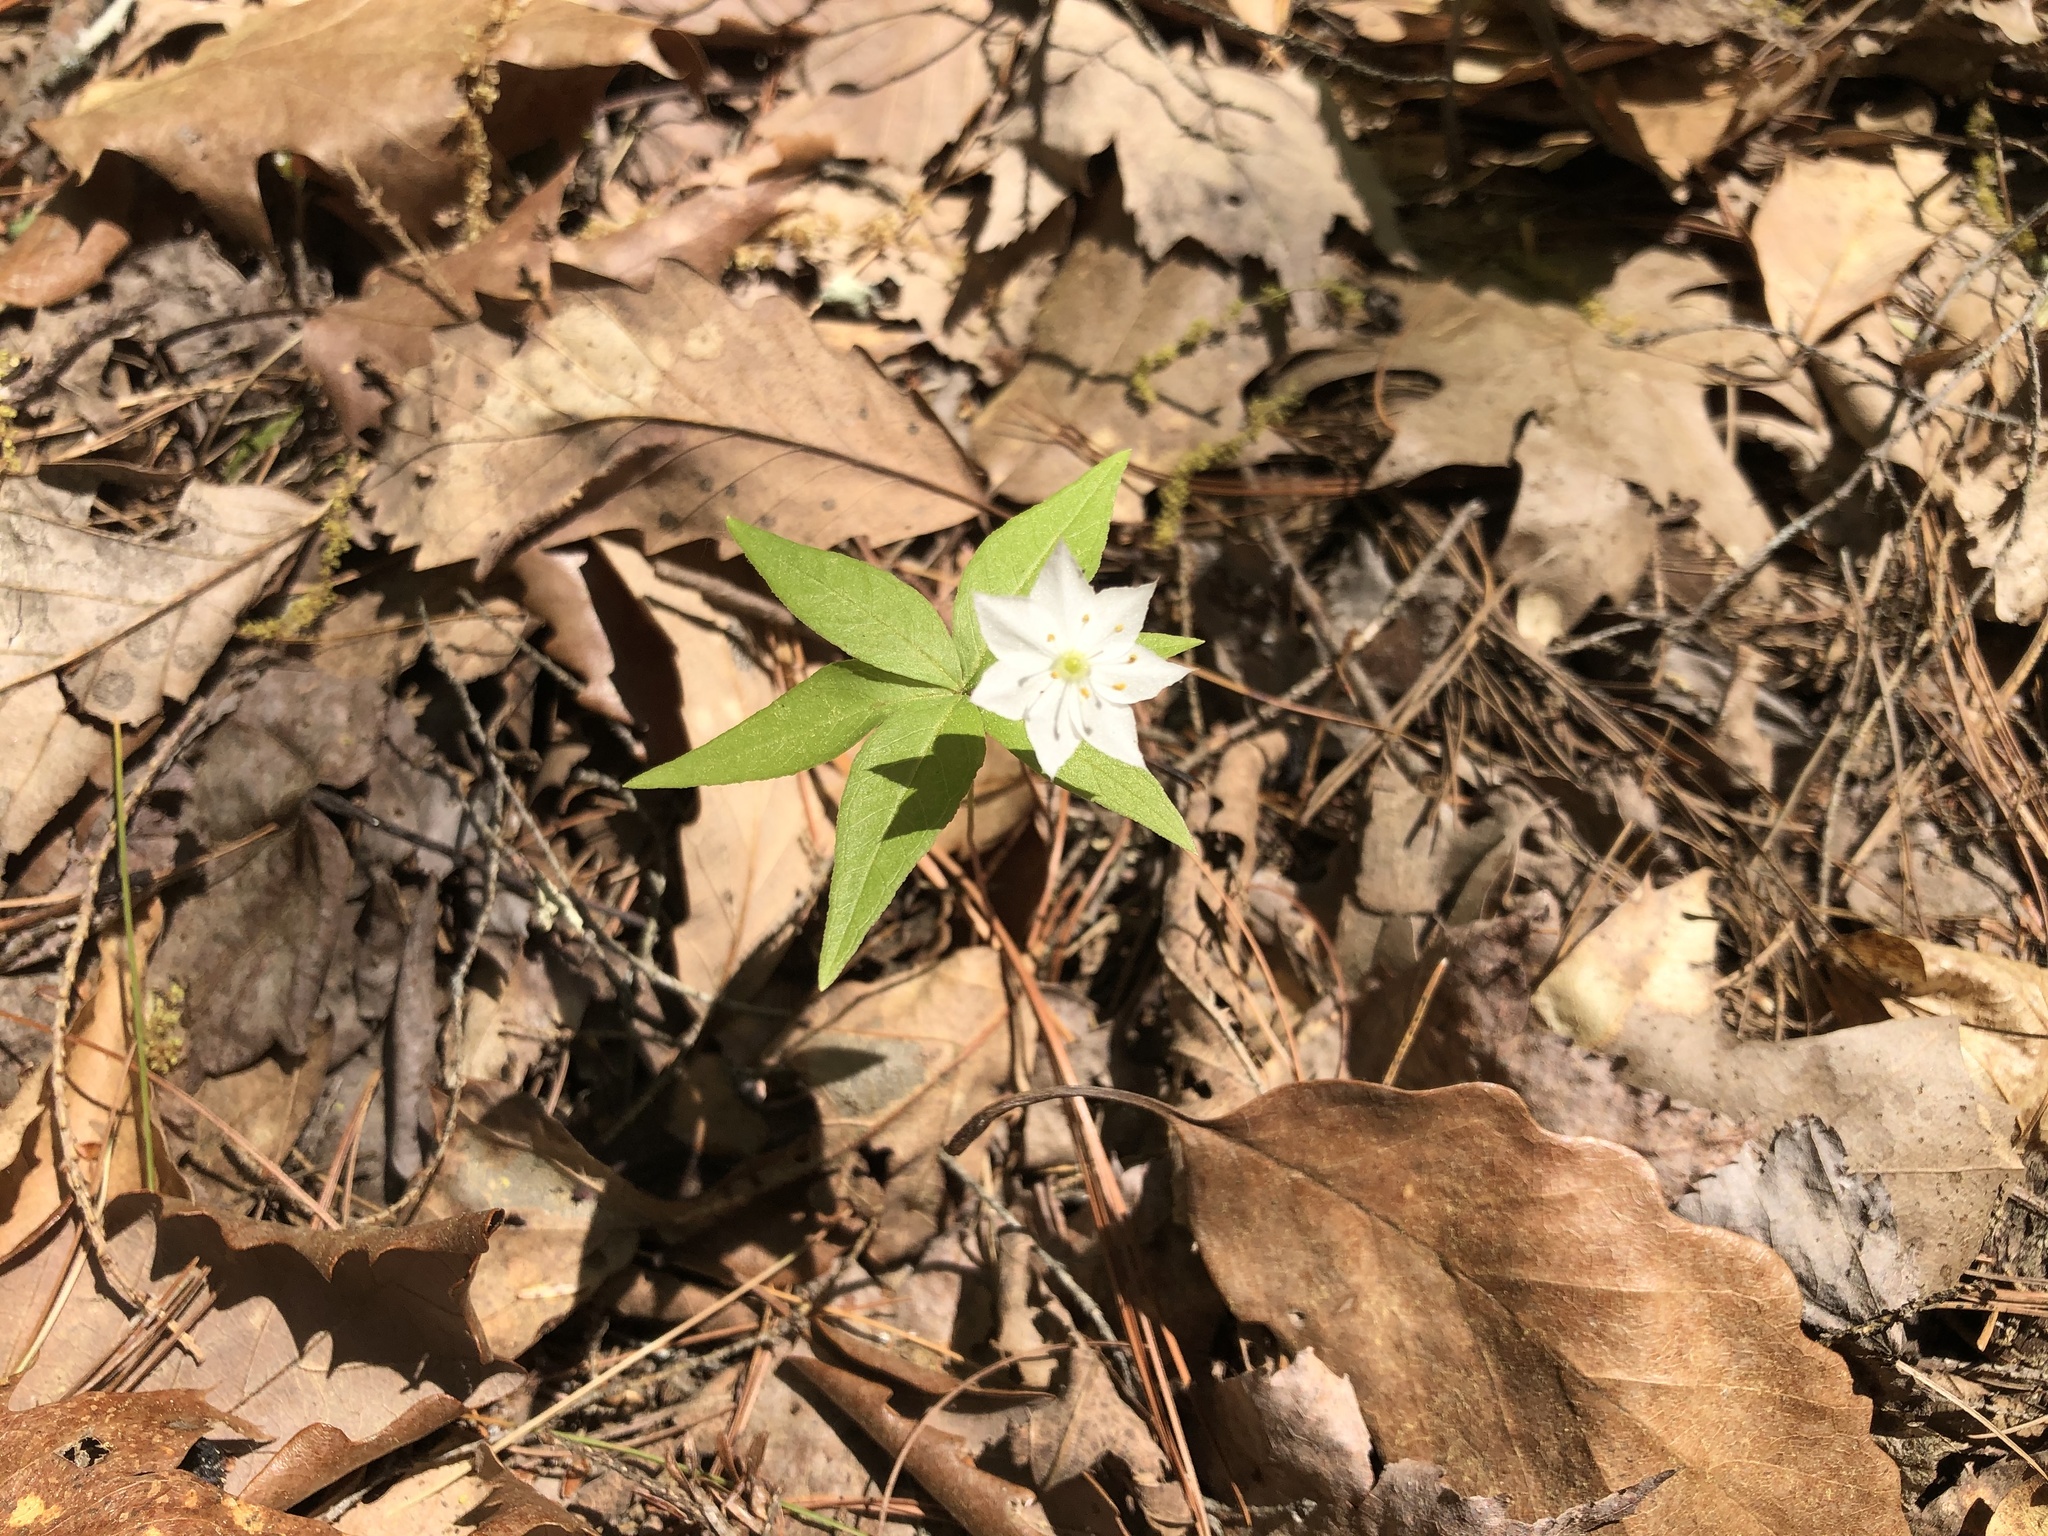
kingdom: Plantae
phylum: Tracheophyta
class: Magnoliopsida
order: Ericales
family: Primulaceae
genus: Lysimachia
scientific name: Lysimachia borealis
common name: American starflower
